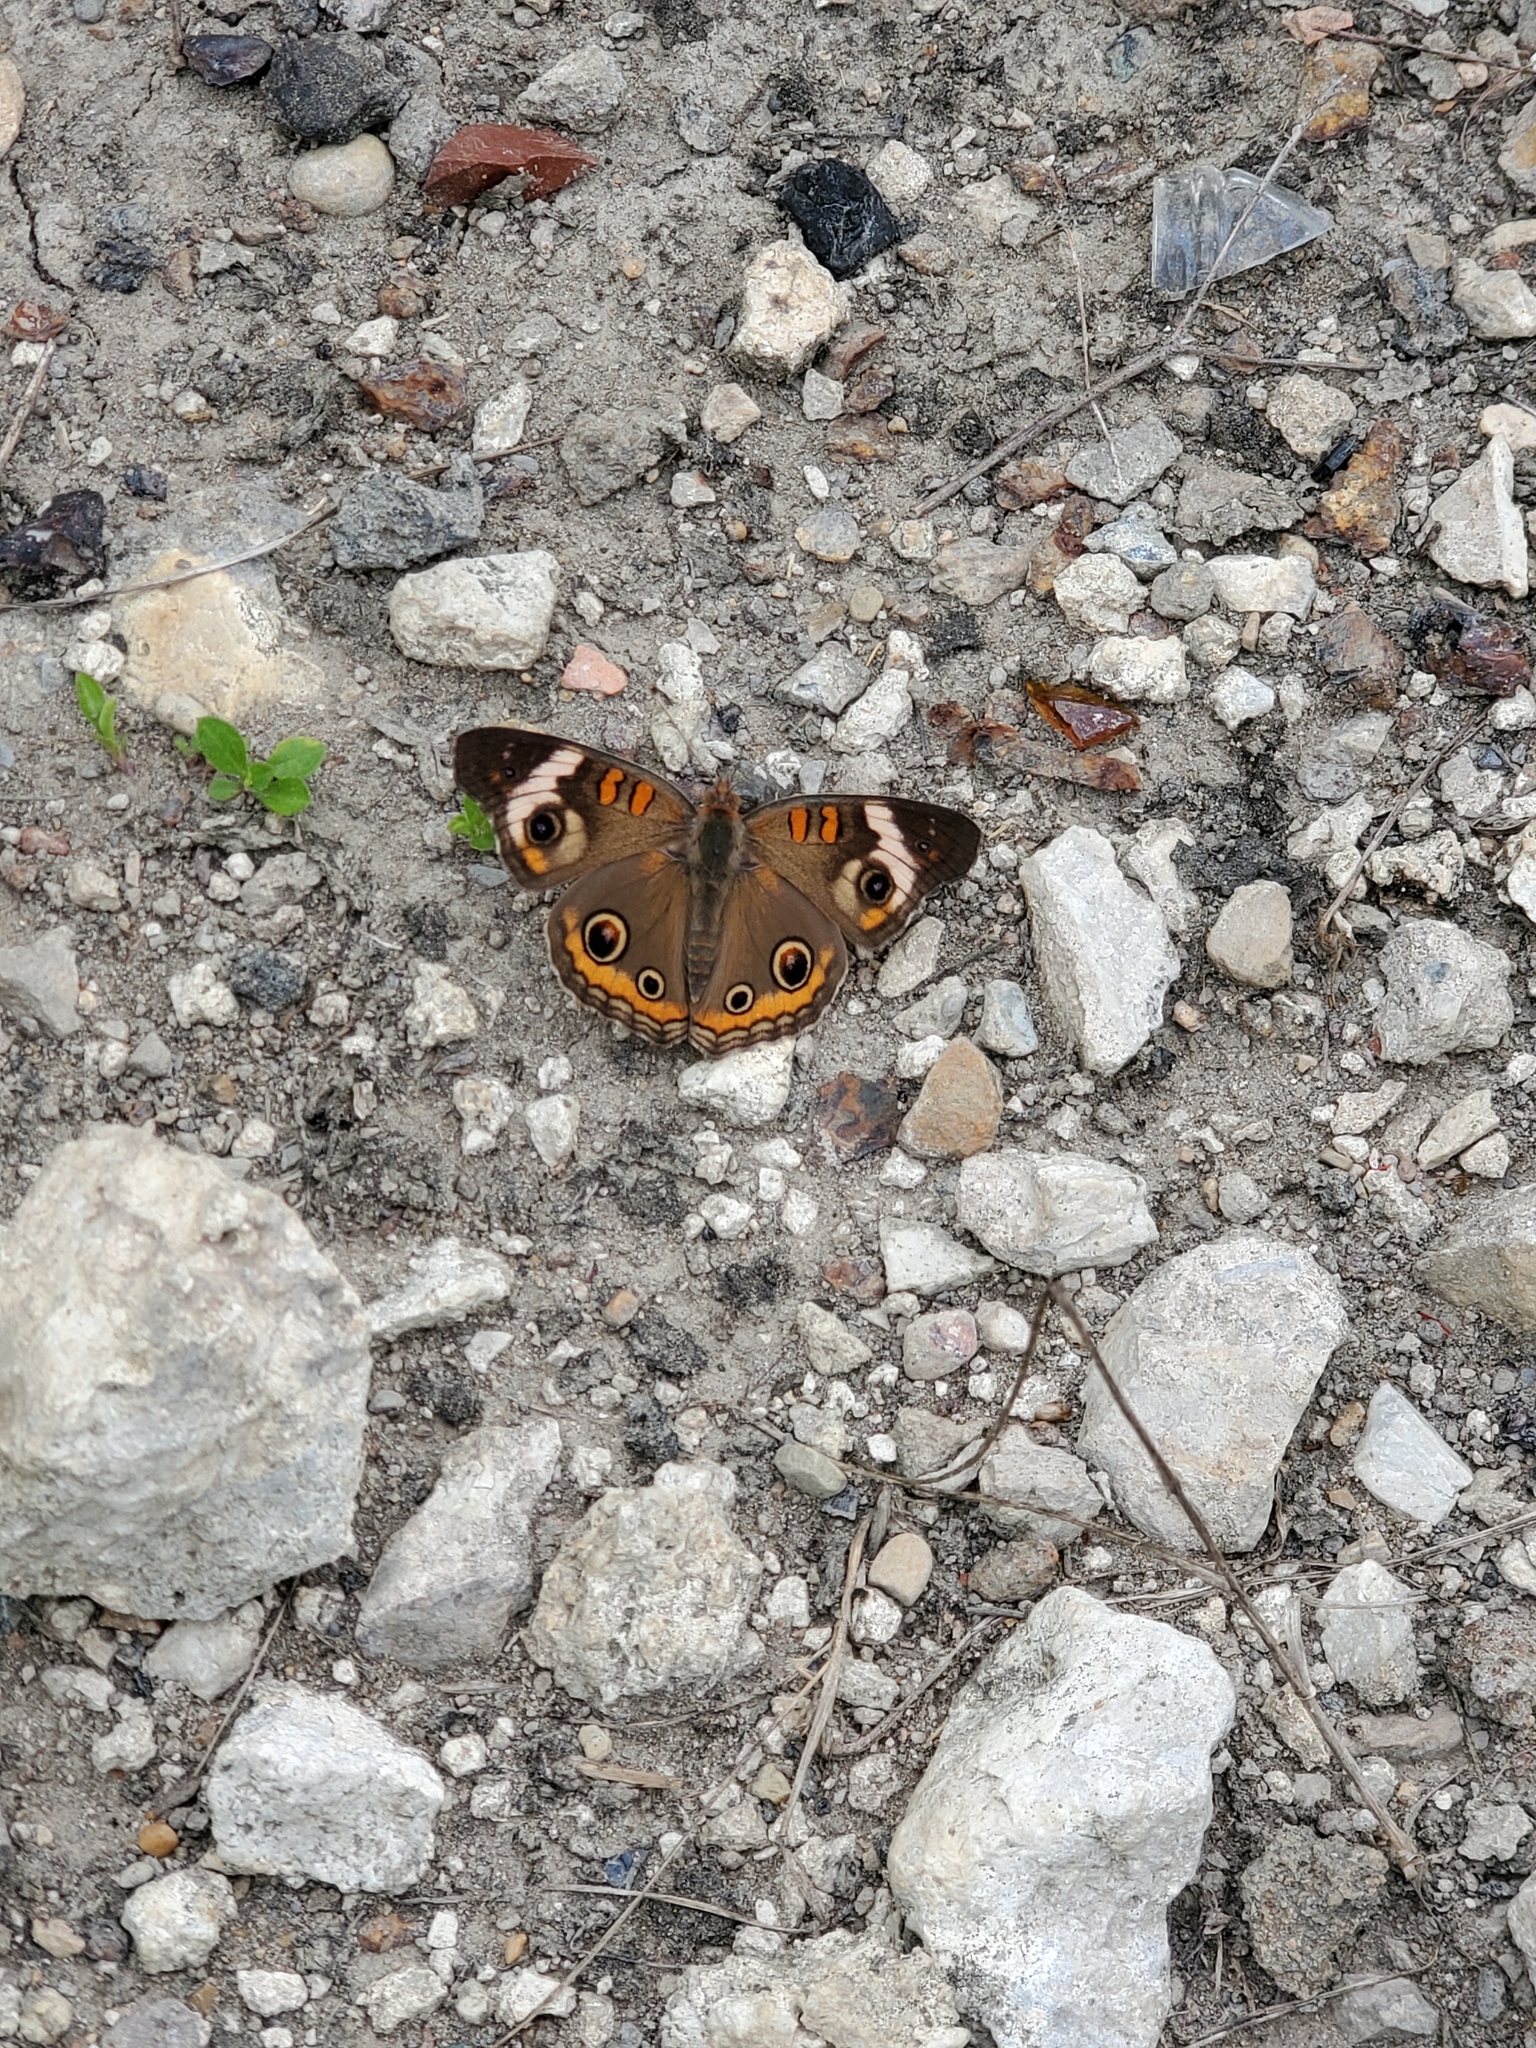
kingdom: Animalia
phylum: Arthropoda
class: Insecta
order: Lepidoptera
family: Nymphalidae
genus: Junonia
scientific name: Junonia coenia
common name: Common buckeye
